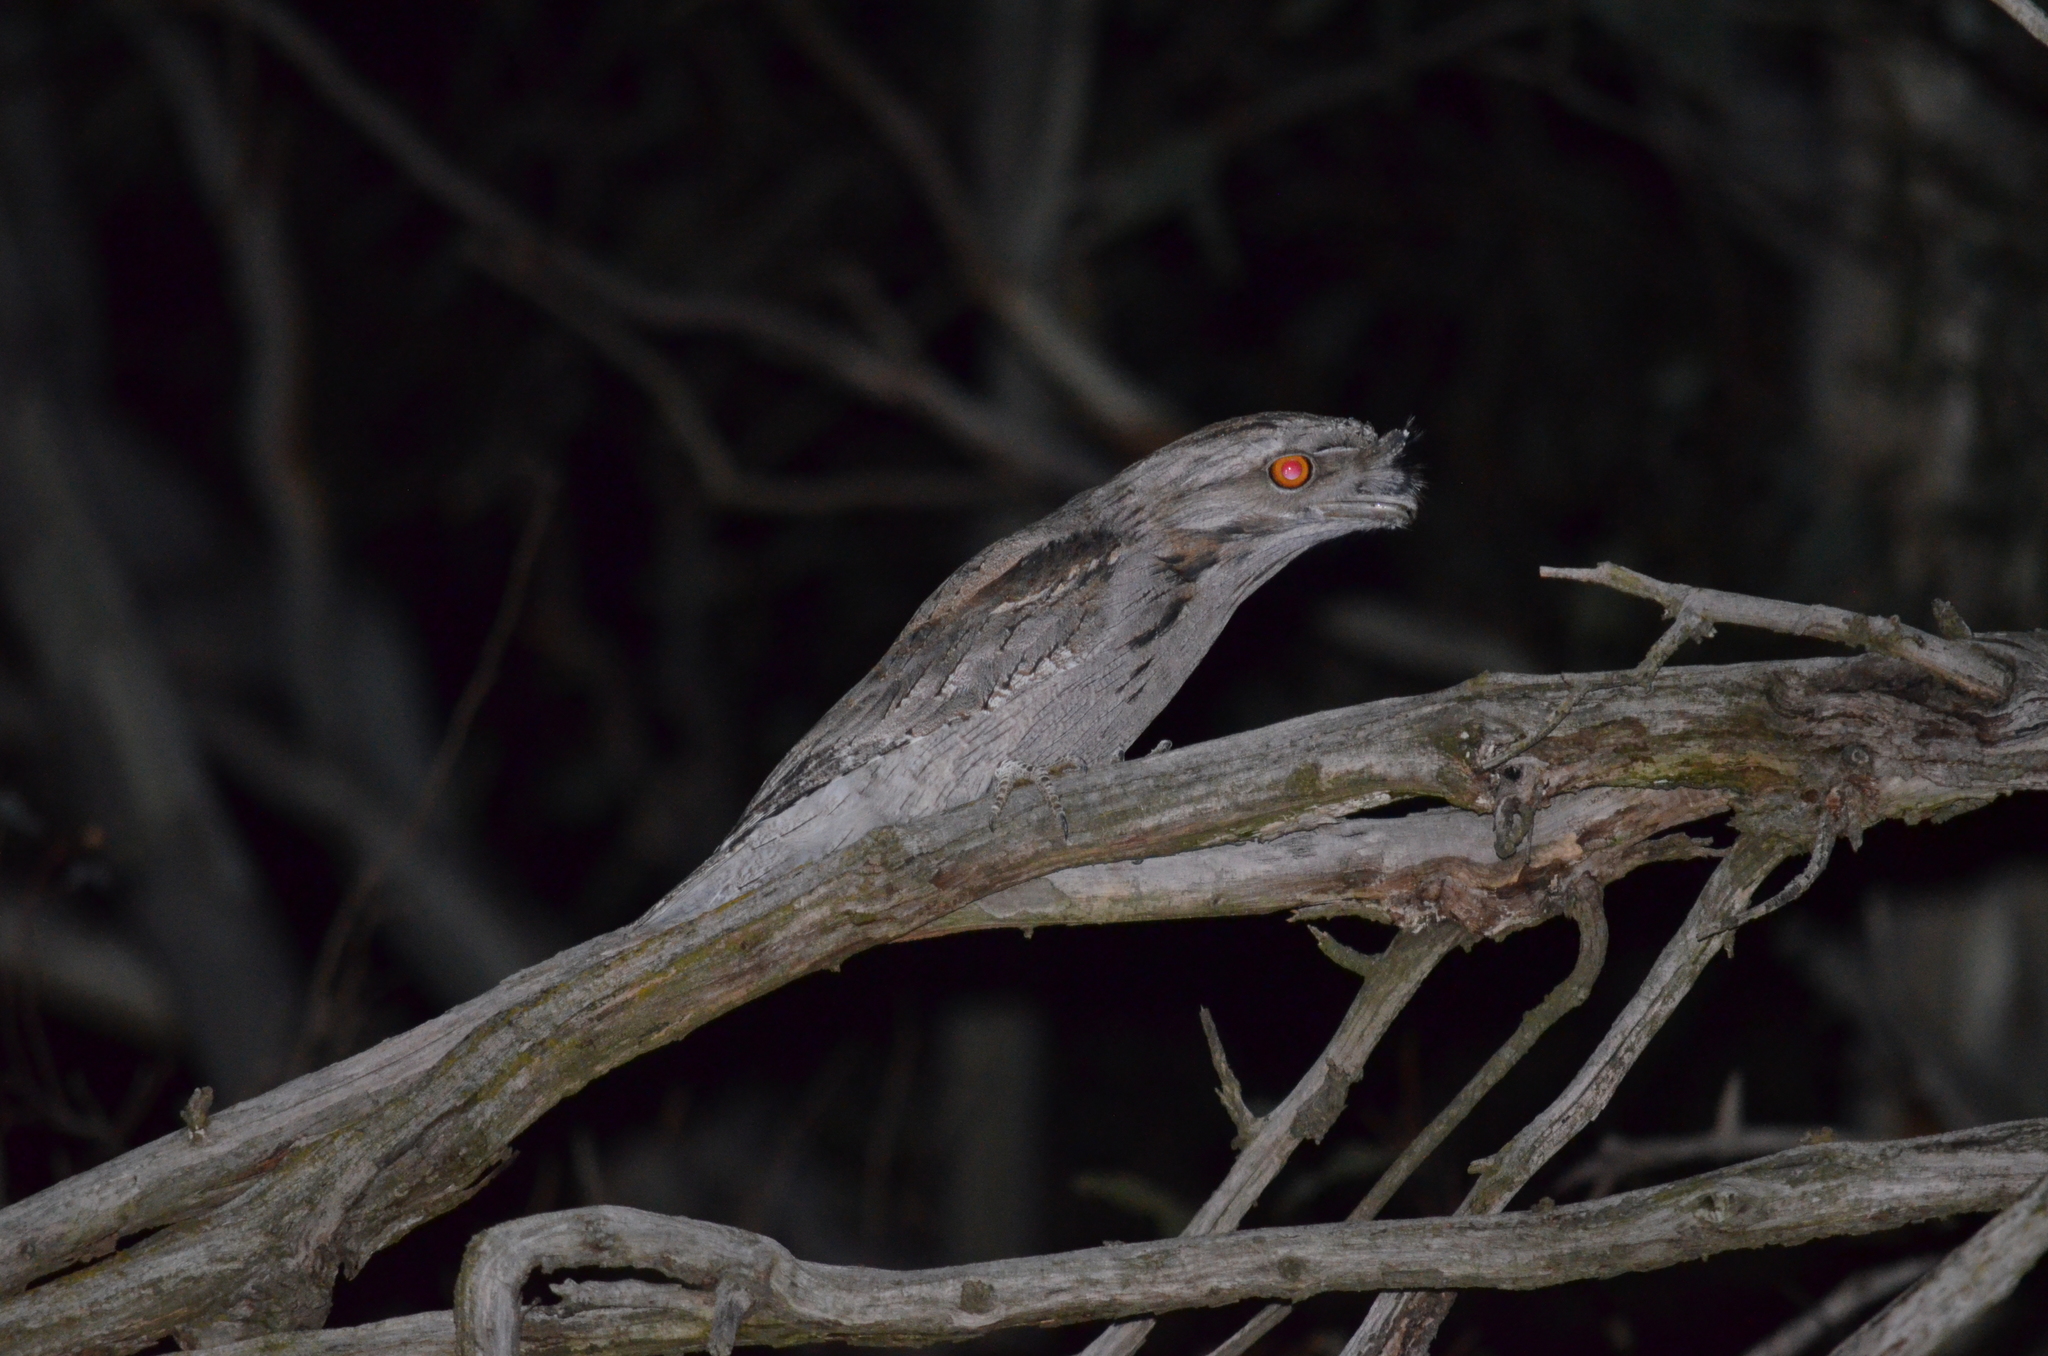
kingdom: Animalia
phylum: Chordata
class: Aves
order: Caprimulgiformes
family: Podargidae
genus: Podargus
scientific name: Podargus strigoides
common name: Tawny frogmouth
